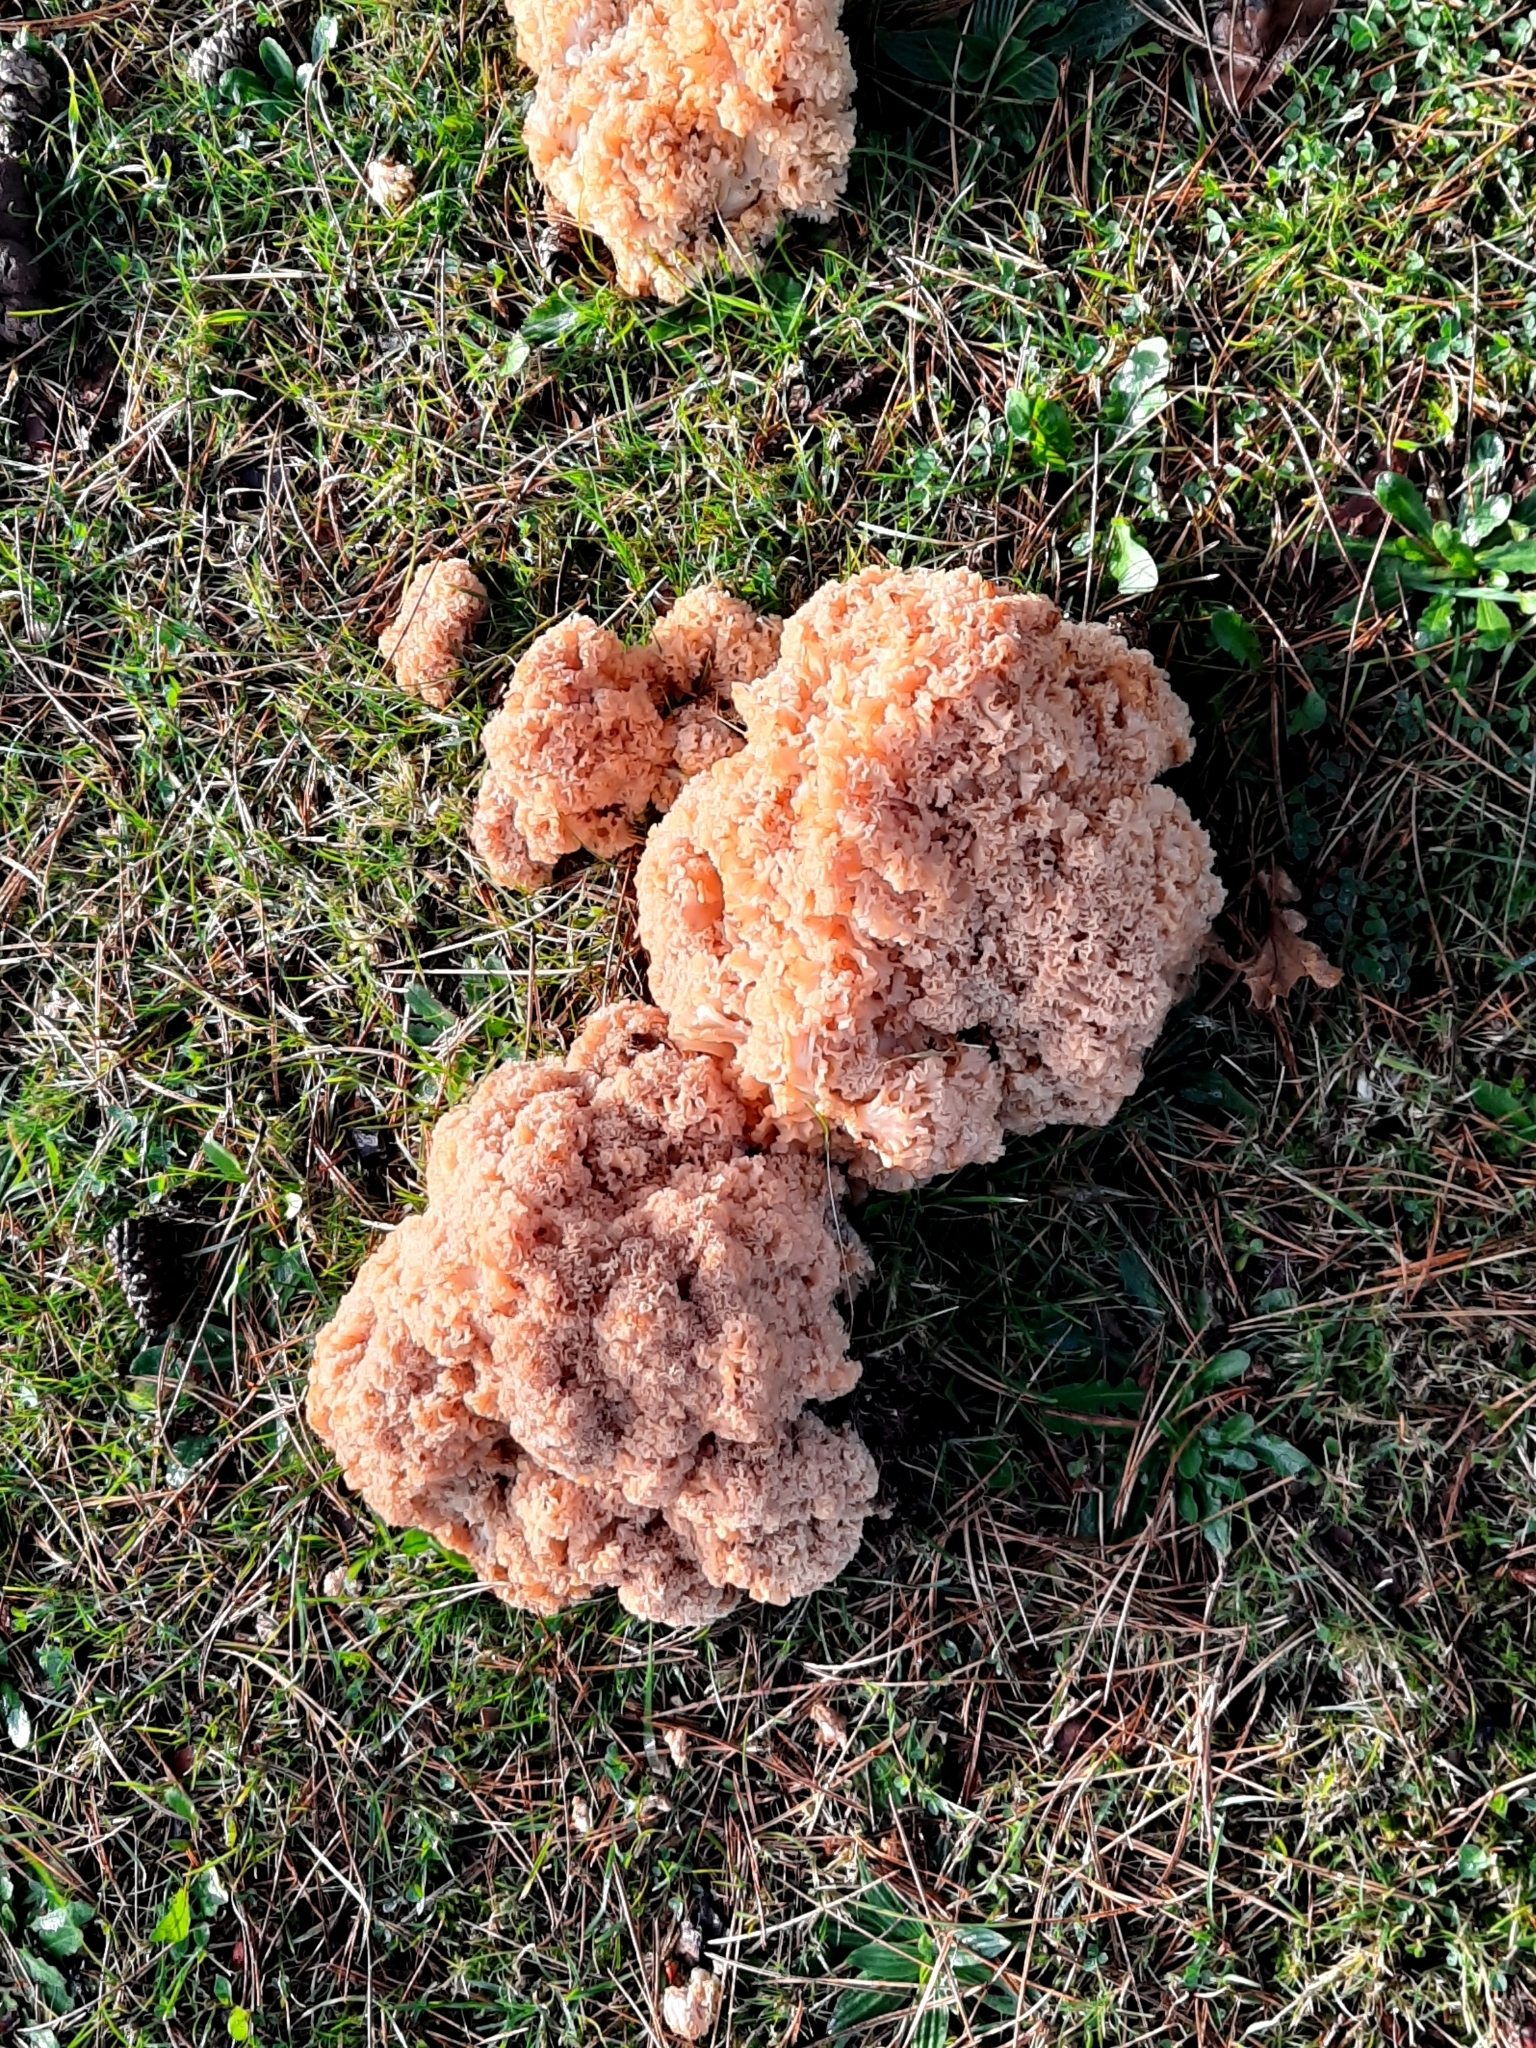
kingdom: Fungi
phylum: Basidiomycota
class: Agaricomycetes
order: Polyporales
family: Sparassidaceae
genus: Sparassis
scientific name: Sparassis crispa
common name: Brain fungus
